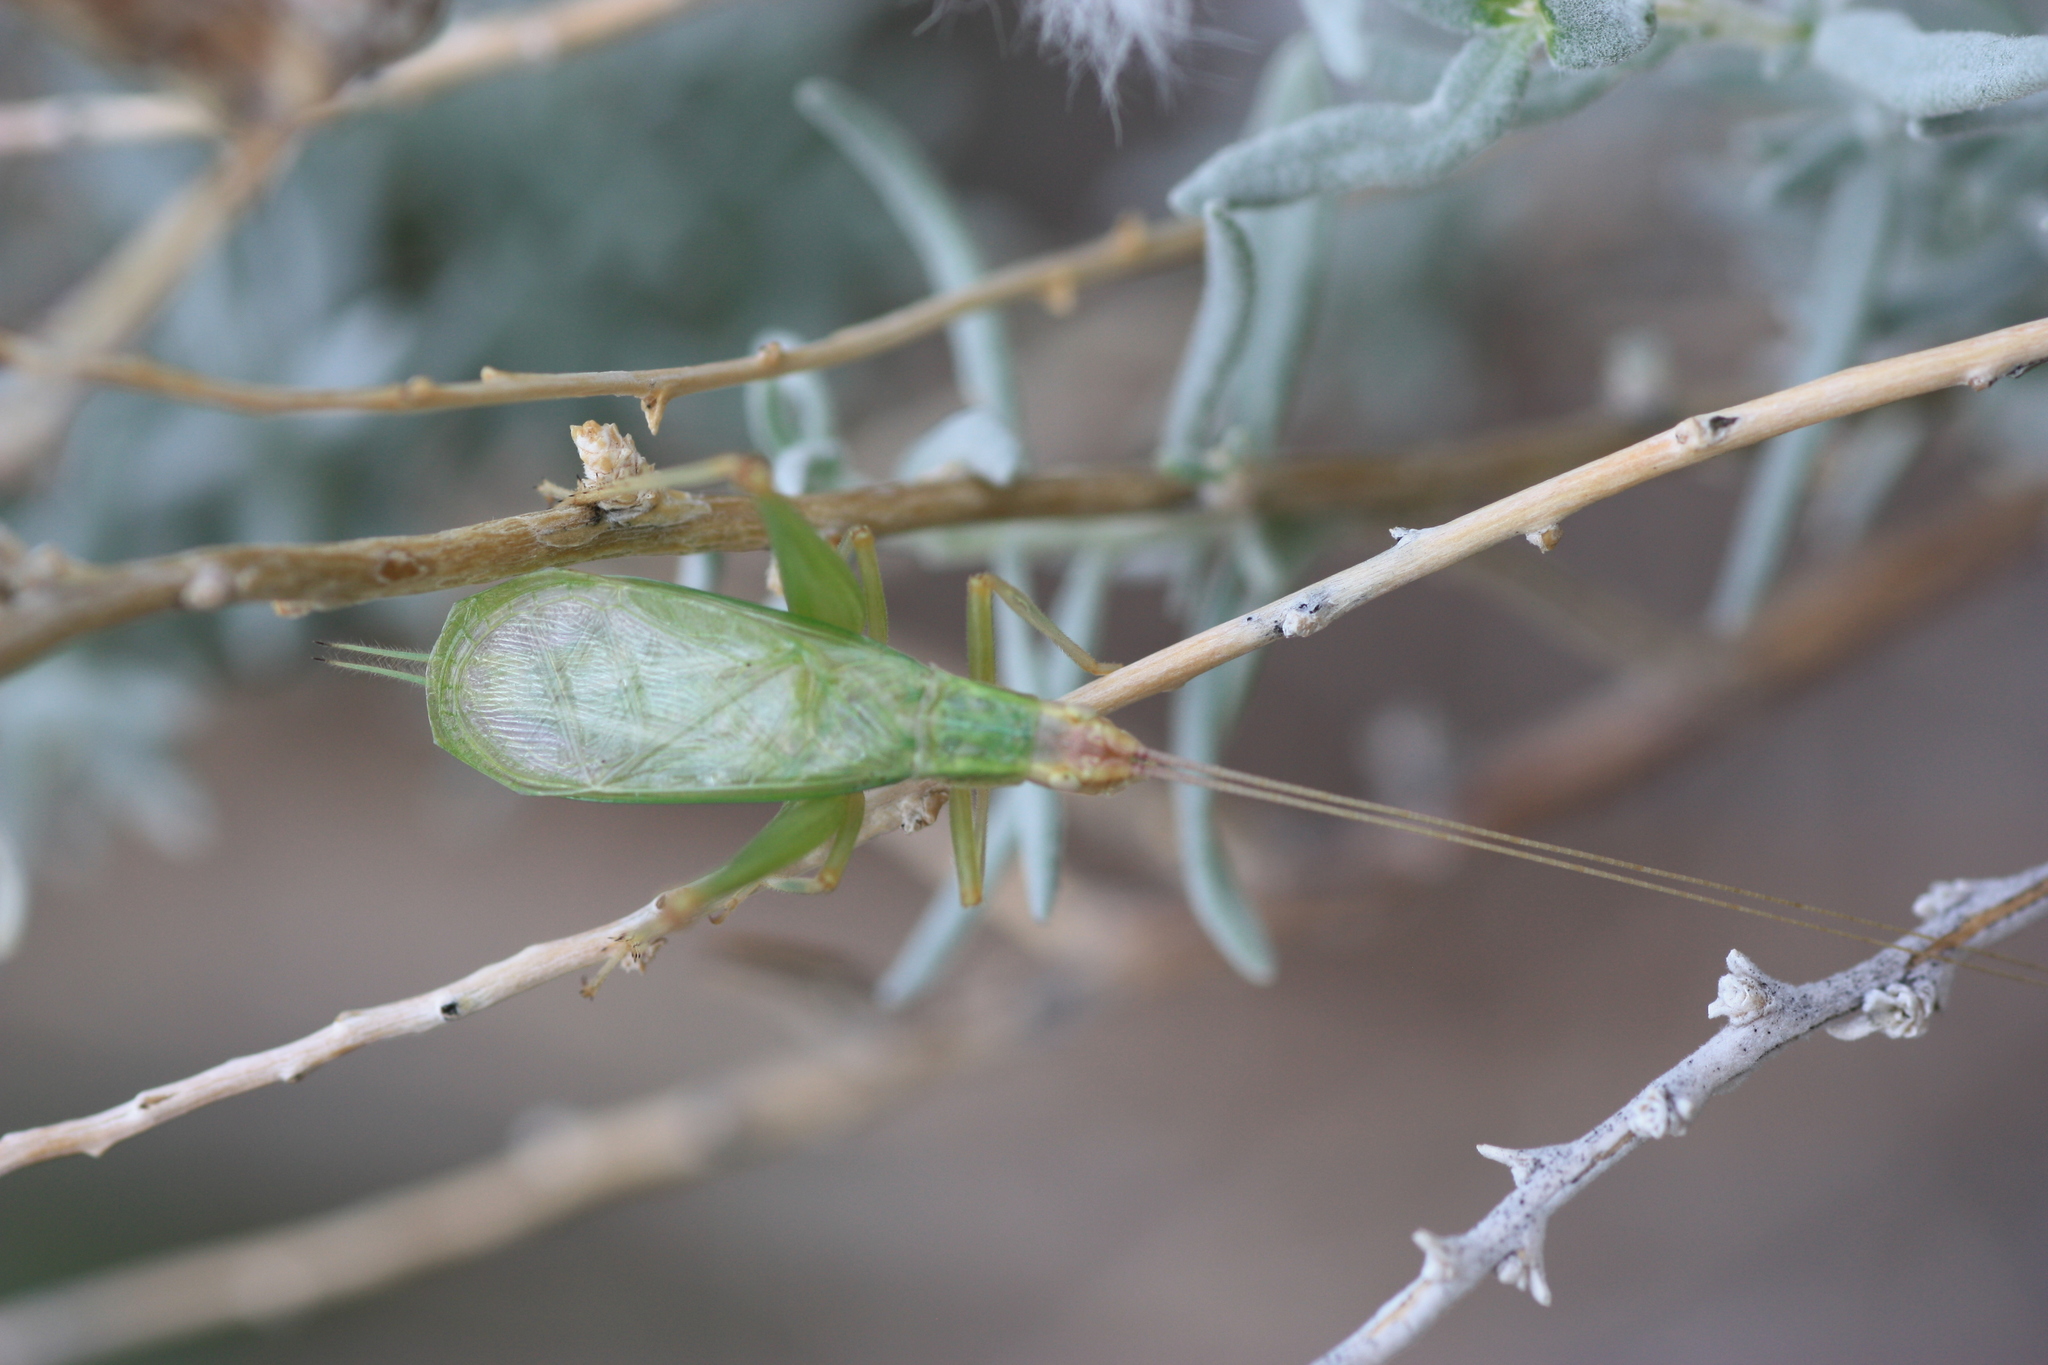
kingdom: Animalia
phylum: Arthropoda
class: Insecta
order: Orthoptera
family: Gryllidae
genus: Oecanthus
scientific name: Oecanthus californicus
